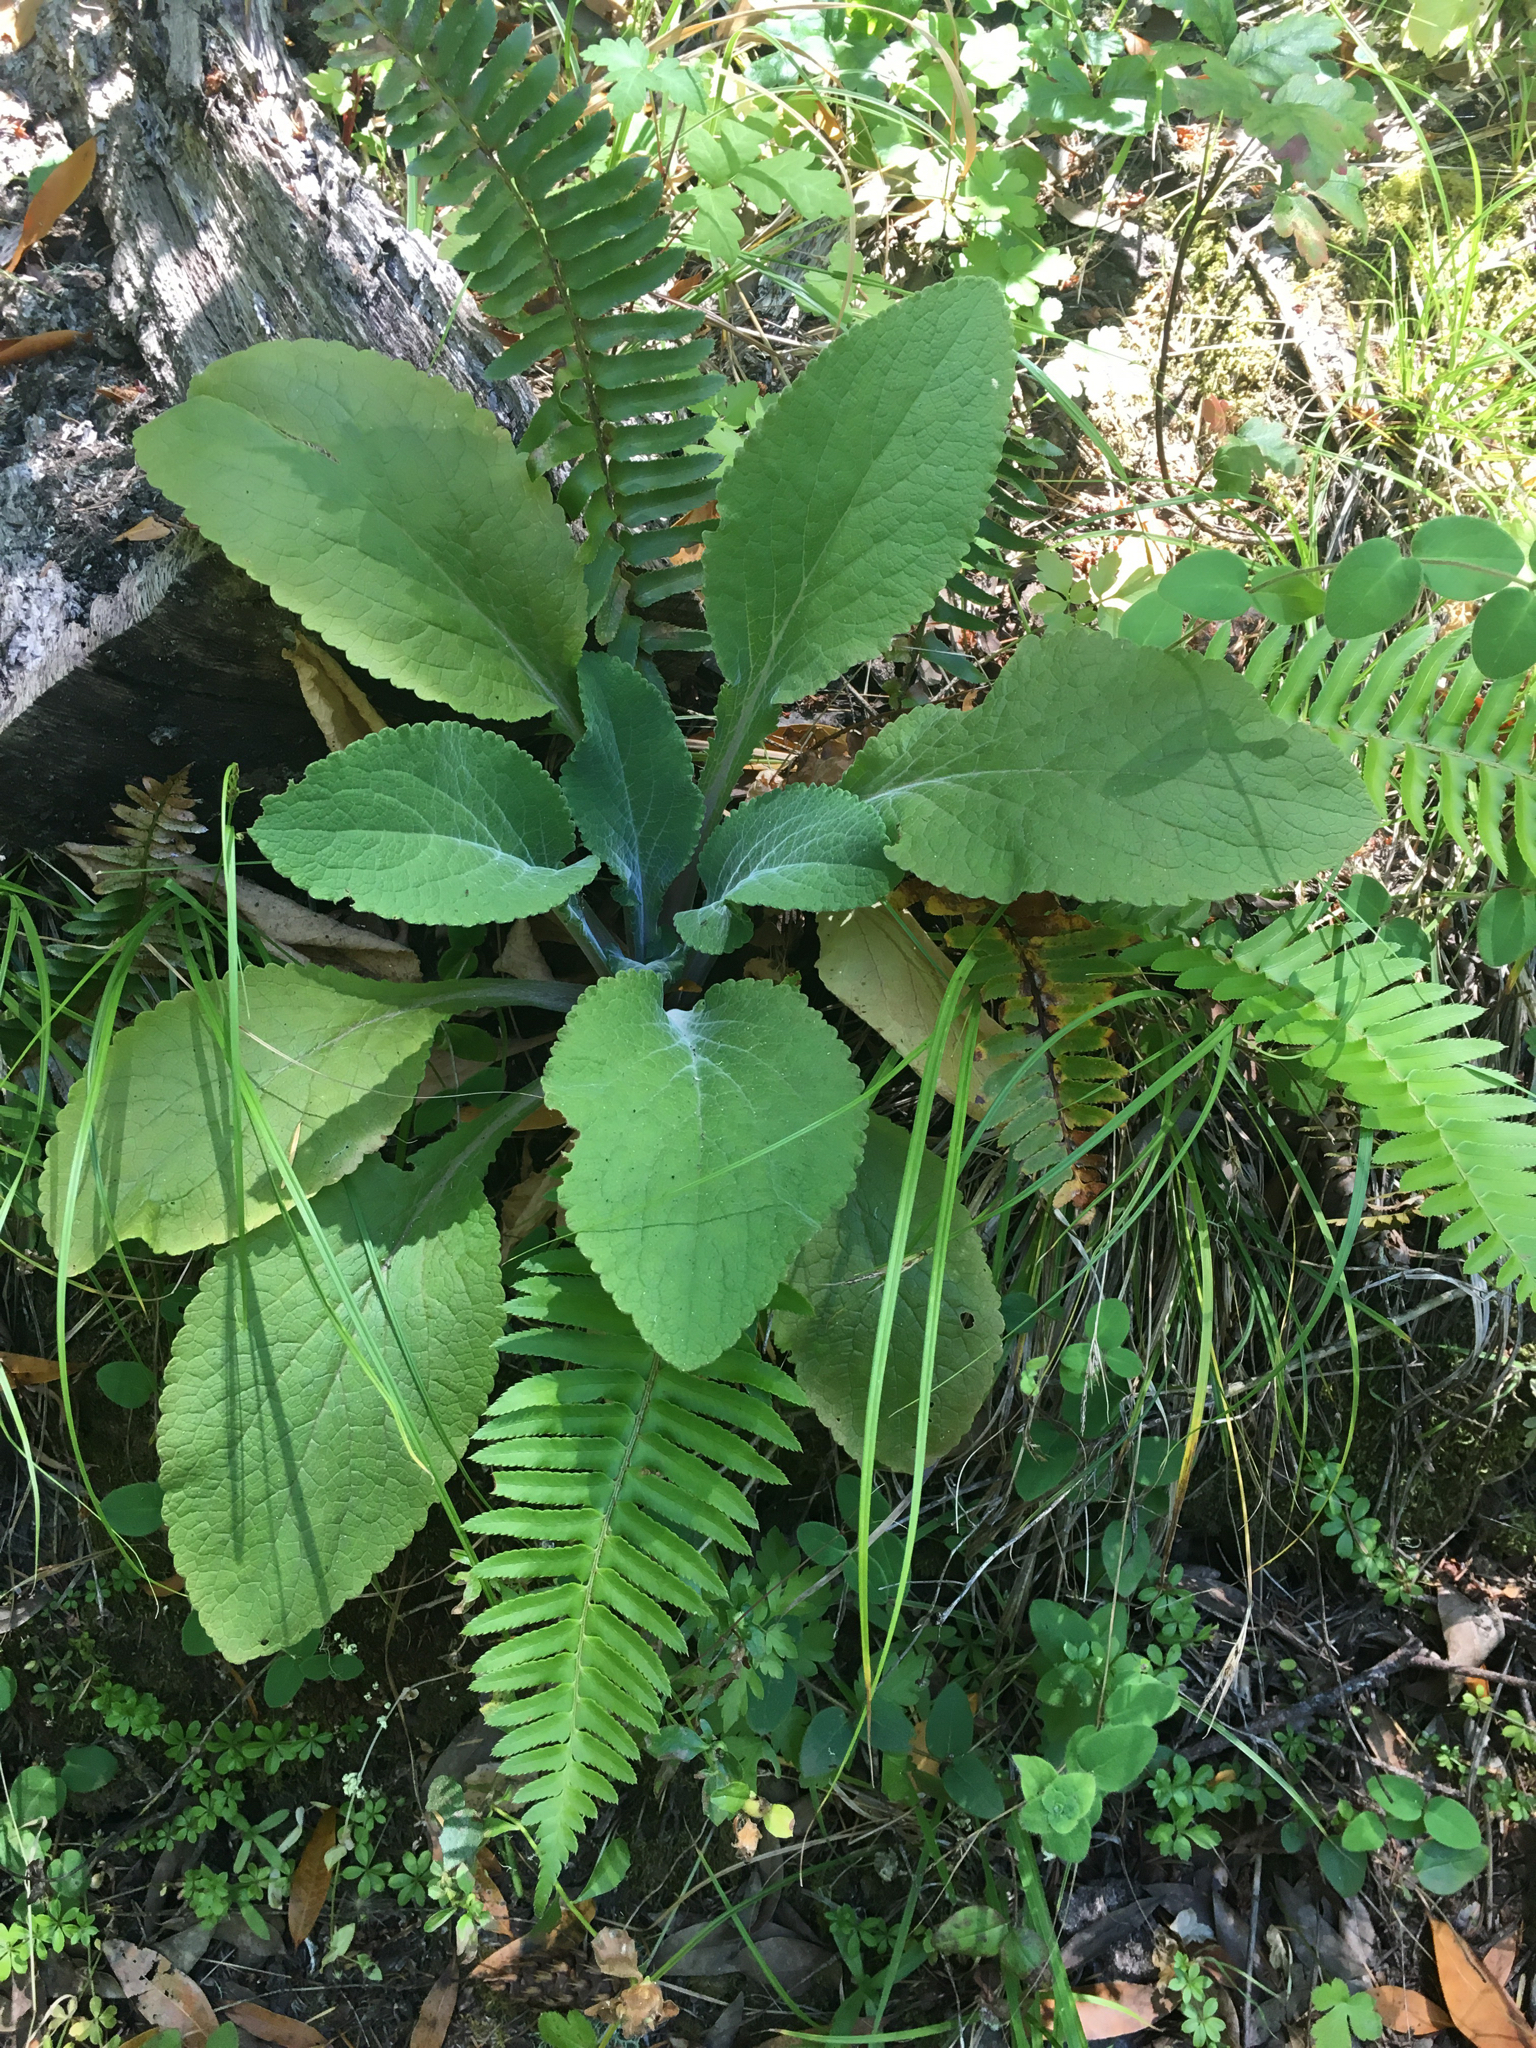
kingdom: Plantae
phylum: Tracheophyta
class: Magnoliopsida
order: Lamiales
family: Plantaginaceae
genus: Digitalis
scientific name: Digitalis purpurea
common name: Foxglove
